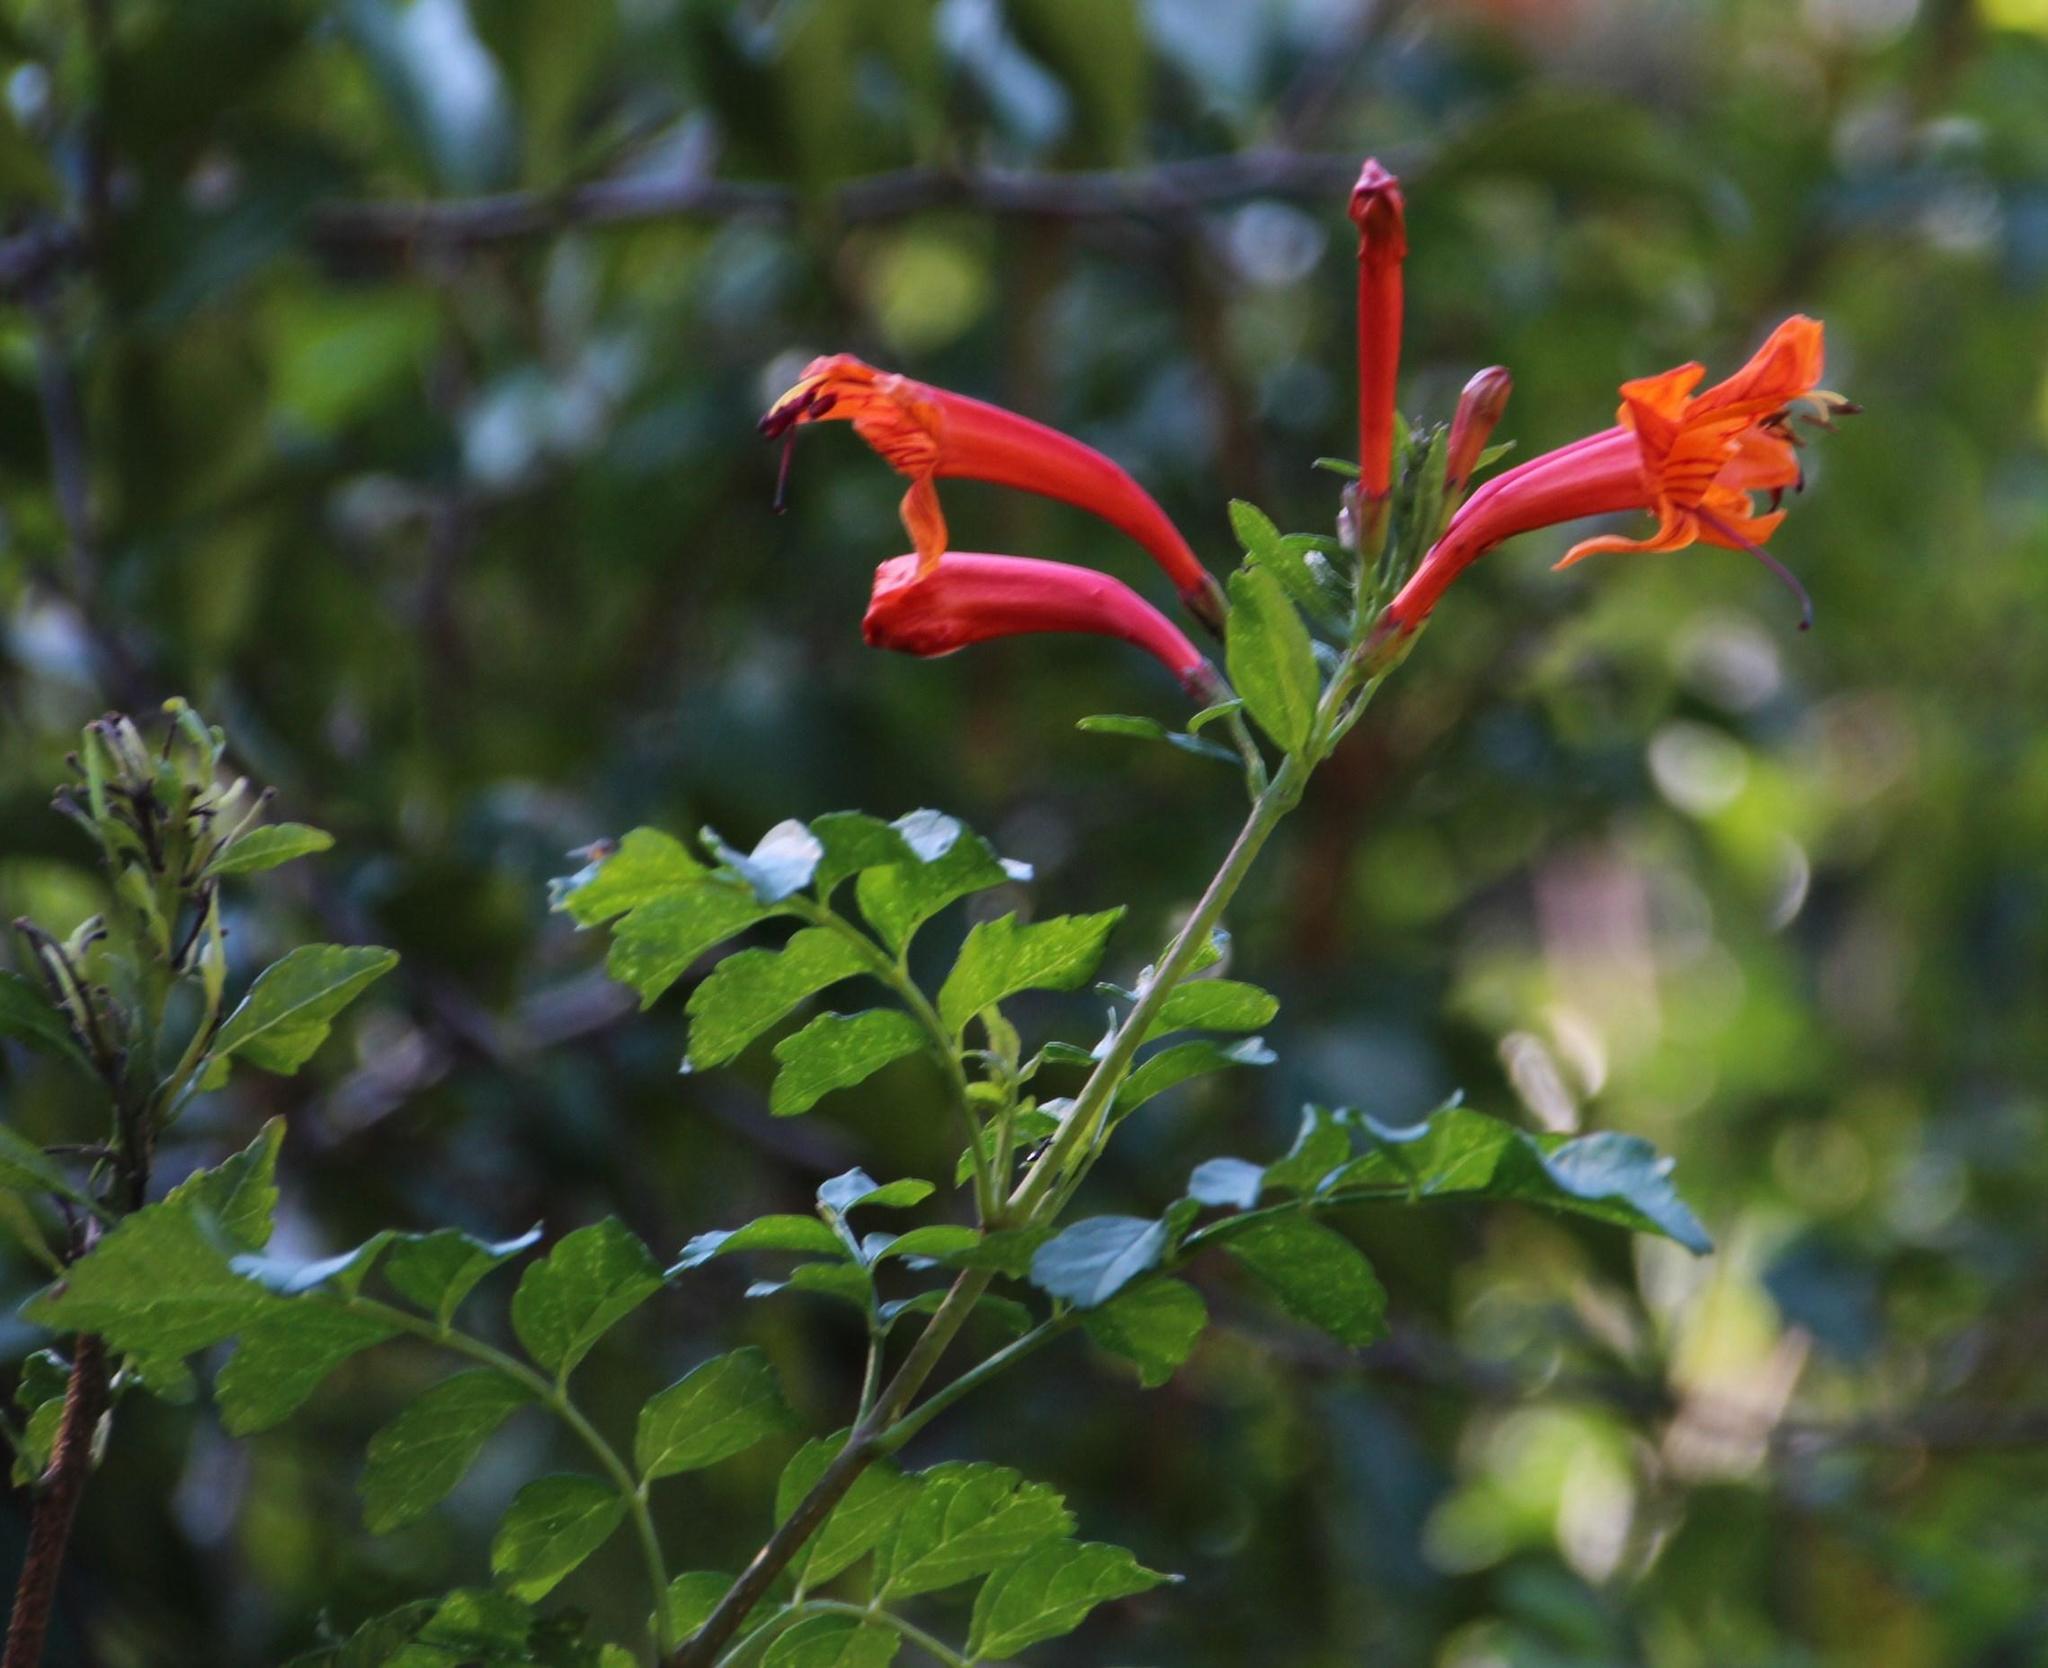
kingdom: Plantae
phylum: Tracheophyta
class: Magnoliopsida
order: Lamiales
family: Bignoniaceae
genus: Tecomaria
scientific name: Tecomaria capensis
